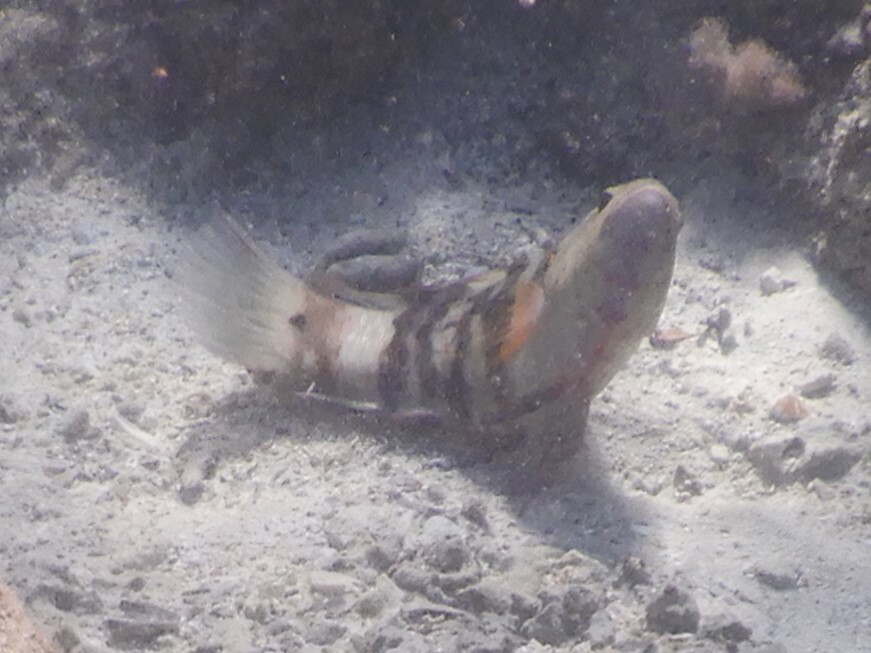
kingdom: Animalia
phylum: Chordata
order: Perciformes
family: Labridae
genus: Cheilinus
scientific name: Cheilinus lunulatus
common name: Broomtail wrasse
